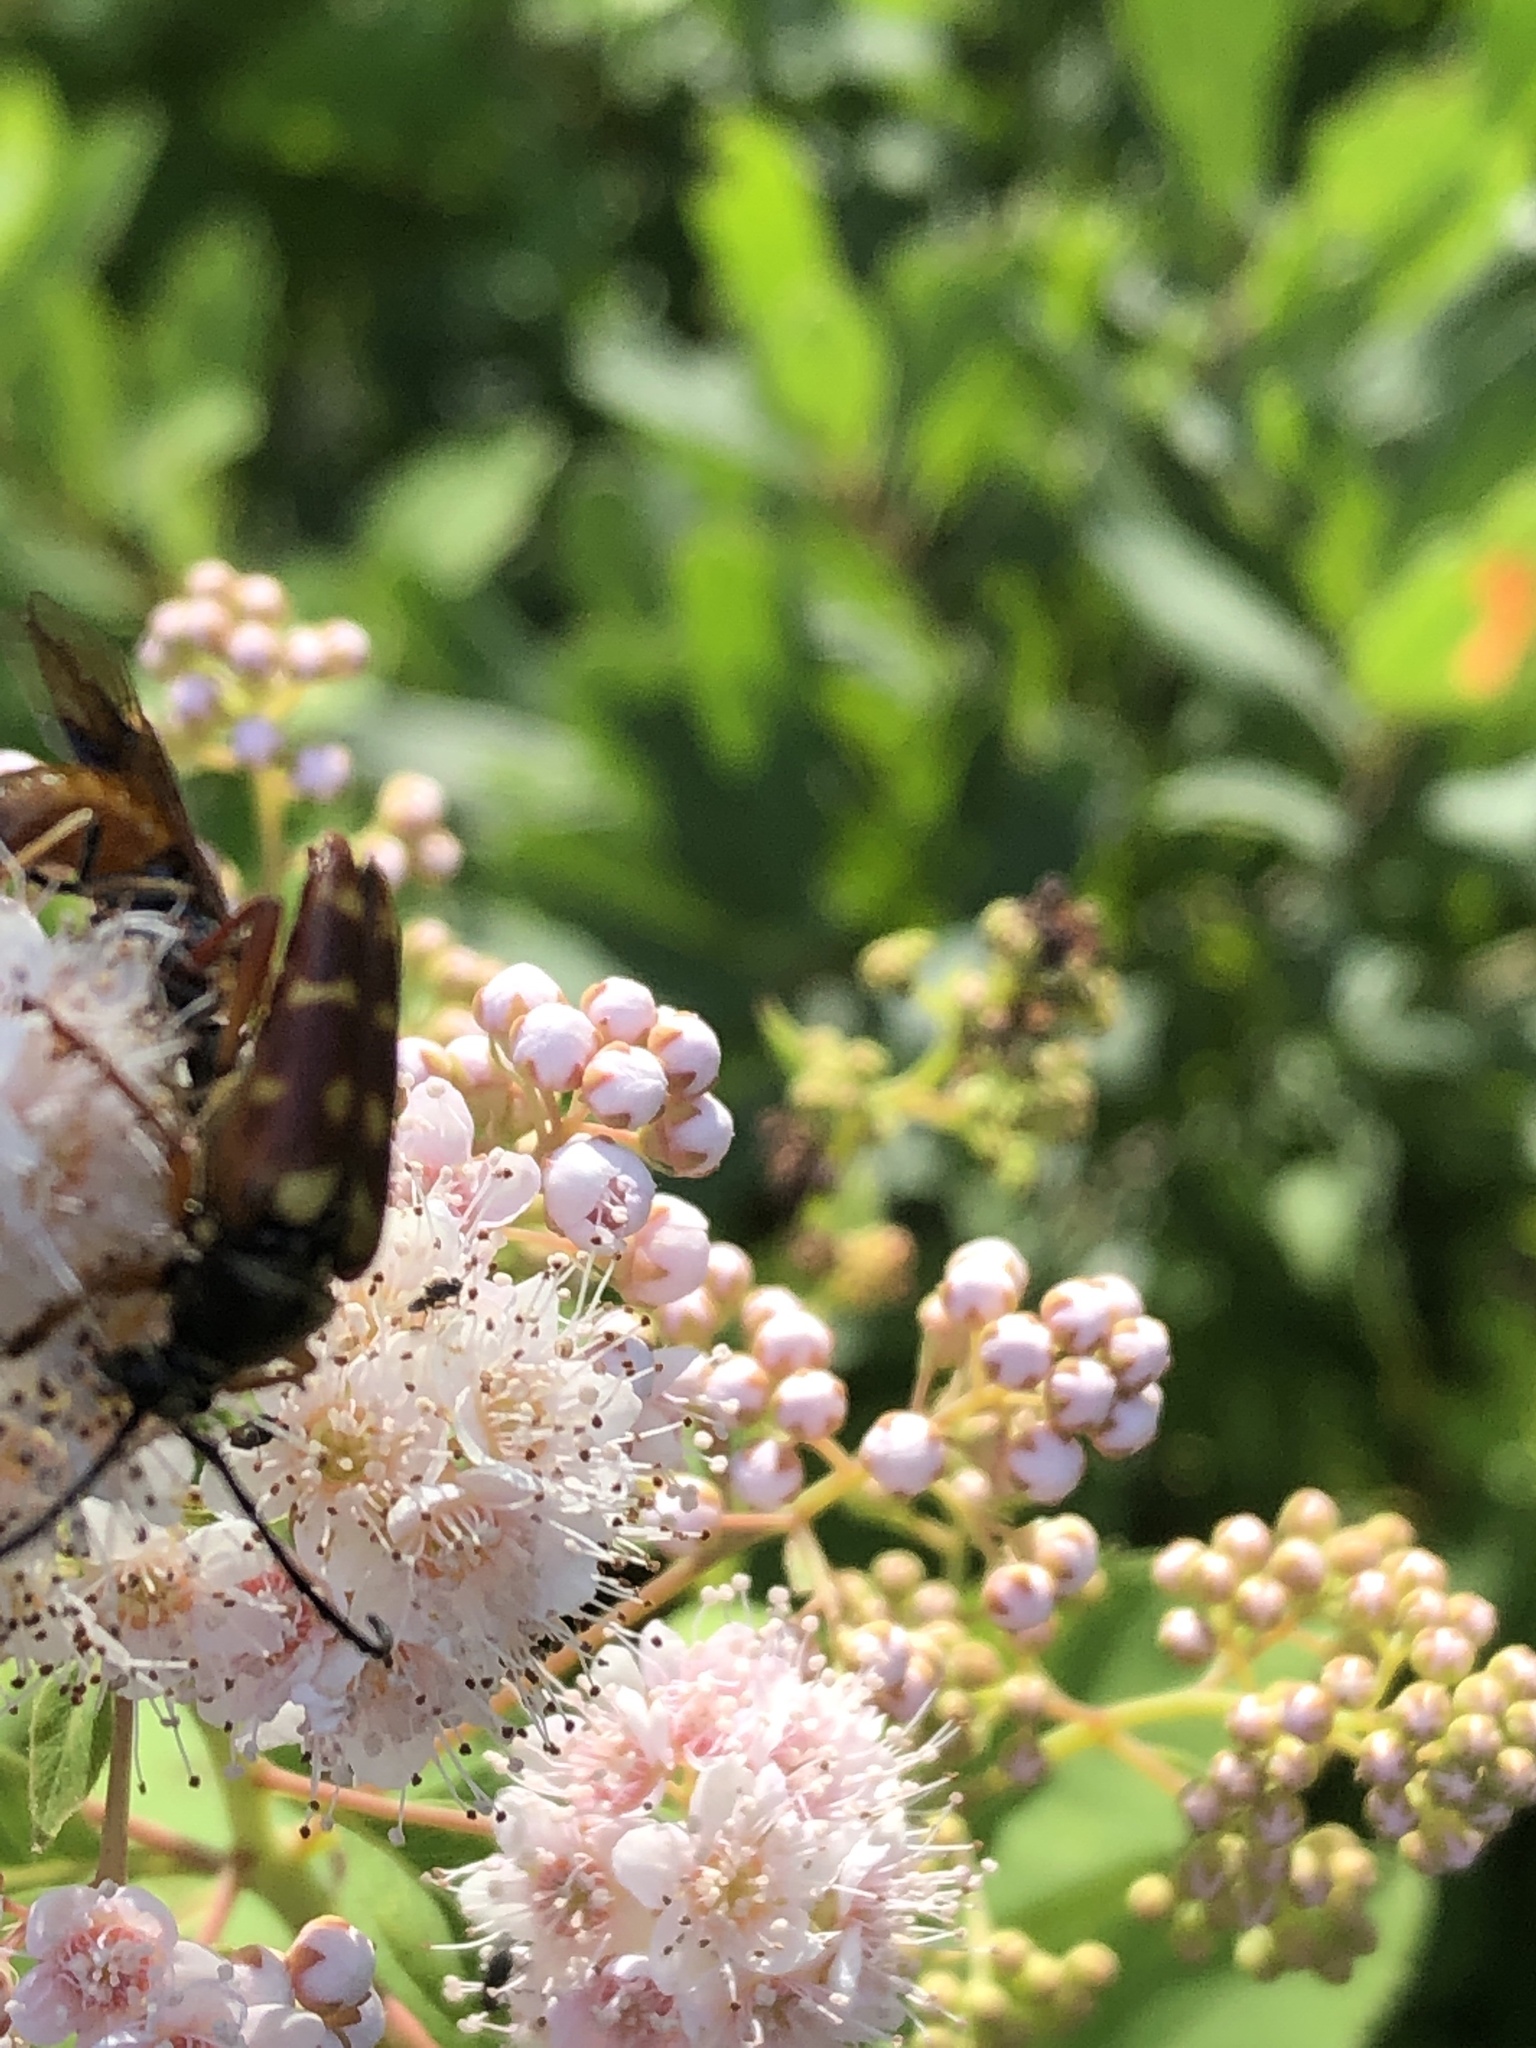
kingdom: Animalia
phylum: Arthropoda
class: Insecta
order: Coleoptera
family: Cerambycidae
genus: Typocerus
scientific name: Typocerus velutinus
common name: Banded longhorn beetle
